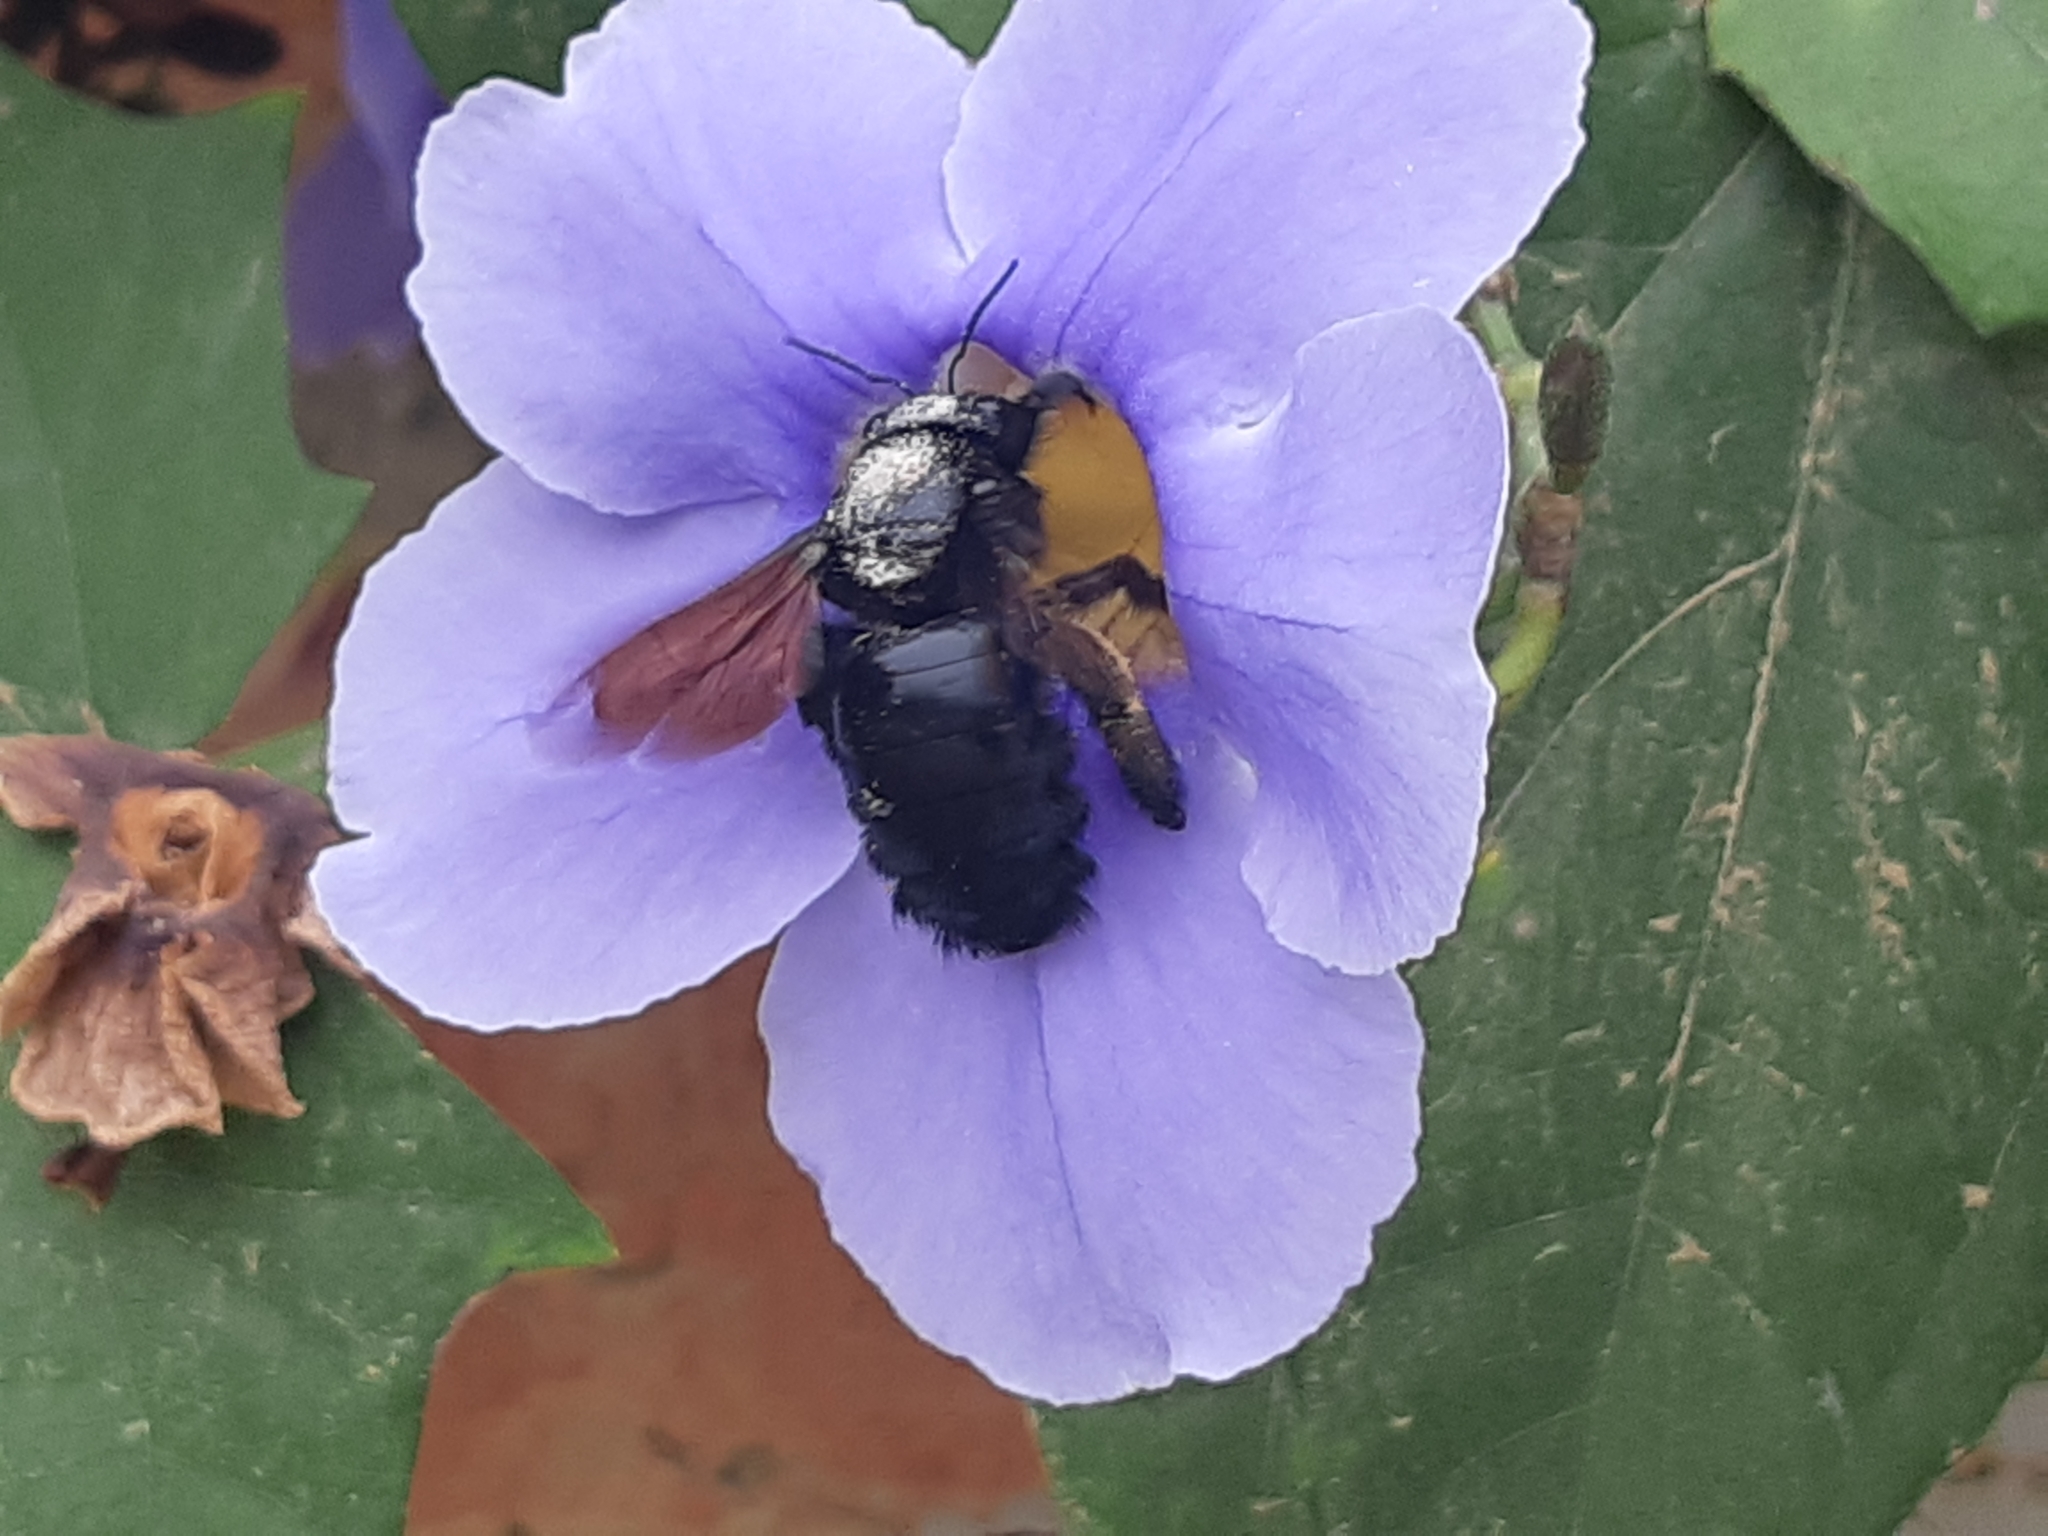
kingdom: Animalia
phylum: Arthropoda
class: Insecta
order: Hymenoptera
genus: Neoxylocopa
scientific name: Neoxylocopa
